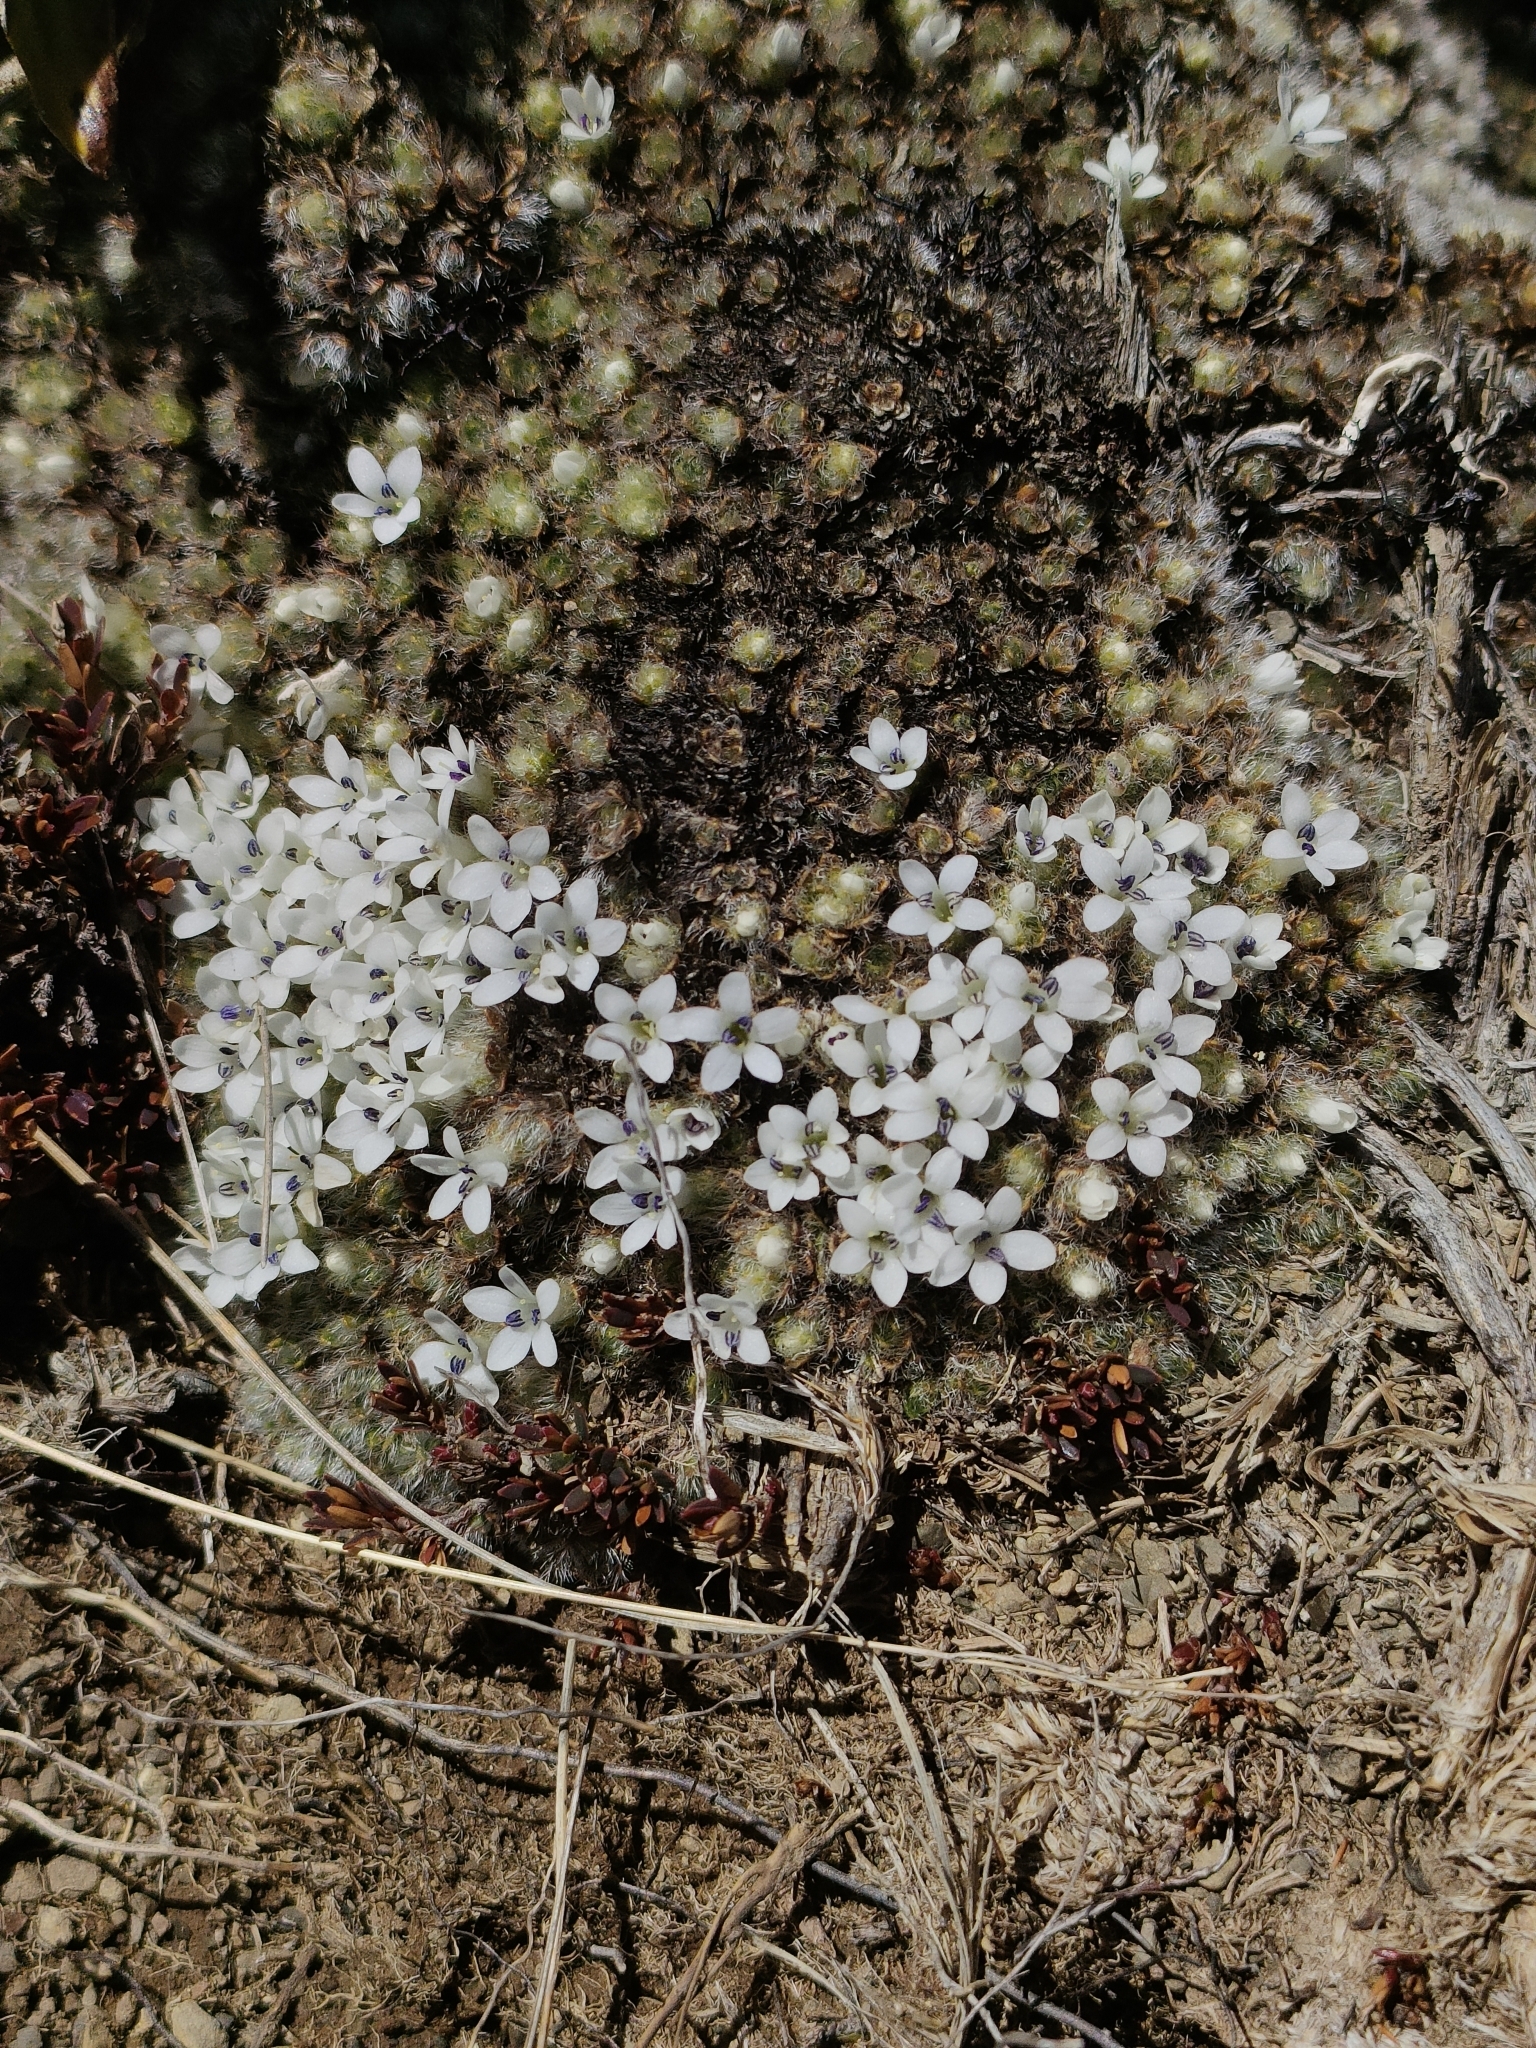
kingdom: Plantae
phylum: Tracheophyta
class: Magnoliopsida
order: Lamiales
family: Plantaginaceae
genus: Veronica
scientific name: Veronica pulvinaris
